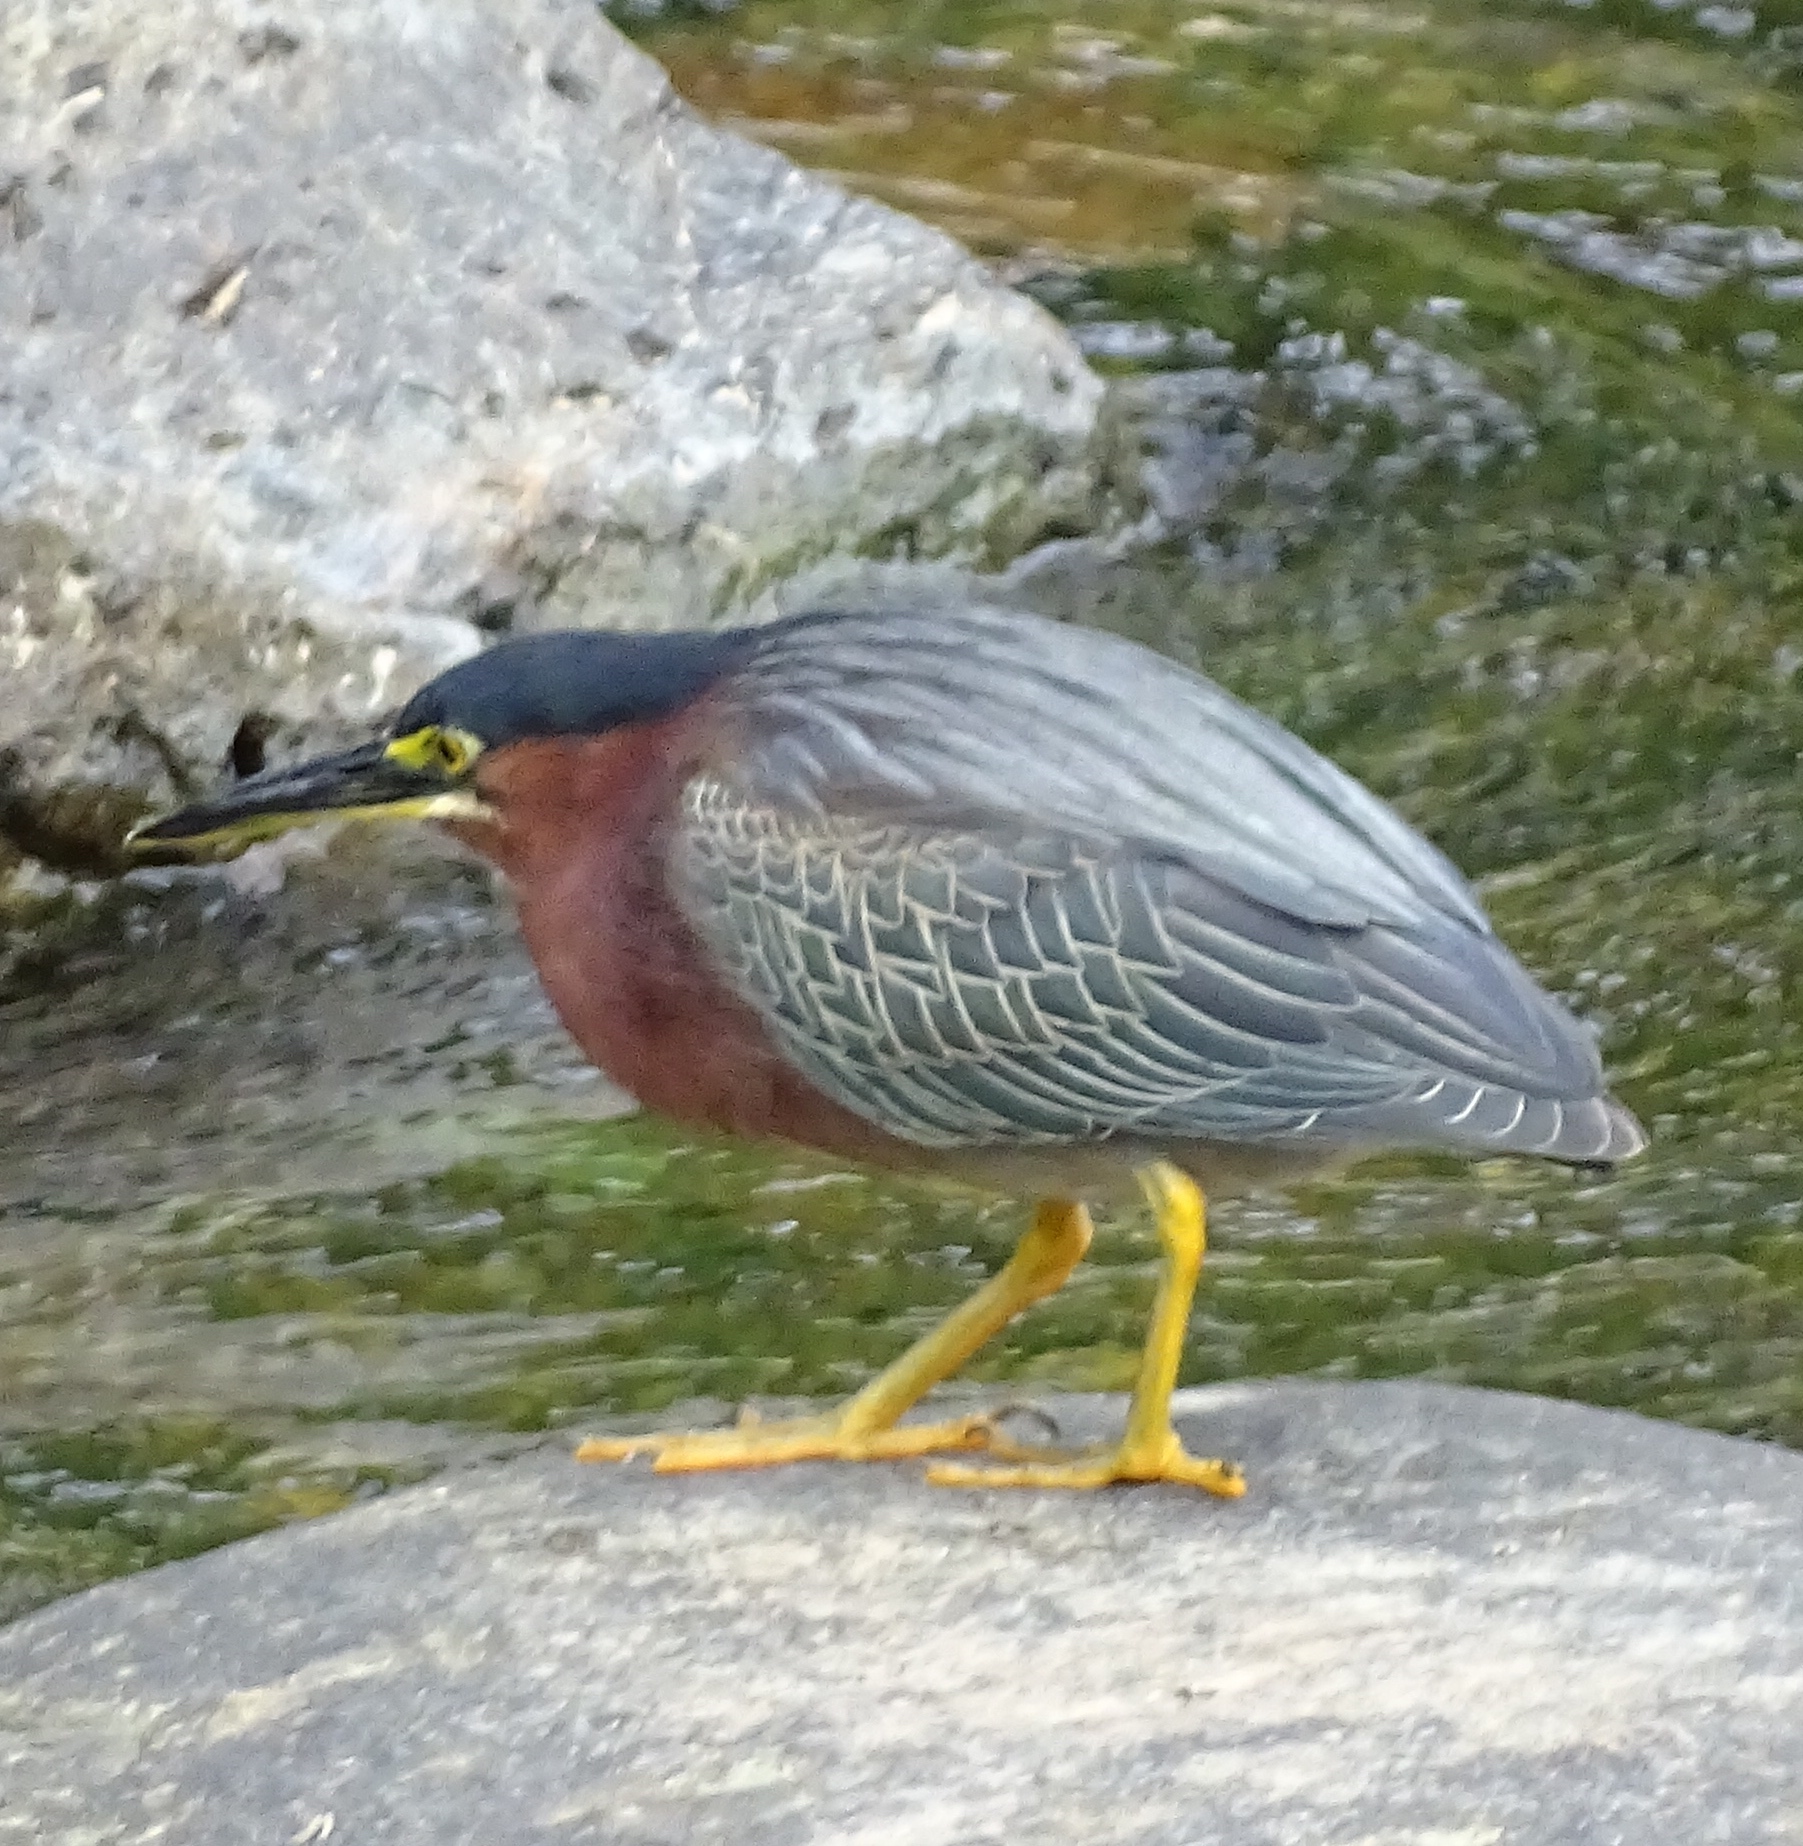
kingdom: Animalia
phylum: Chordata
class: Aves
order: Pelecaniformes
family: Ardeidae
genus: Butorides
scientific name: Butorides virescens
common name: Green heron
